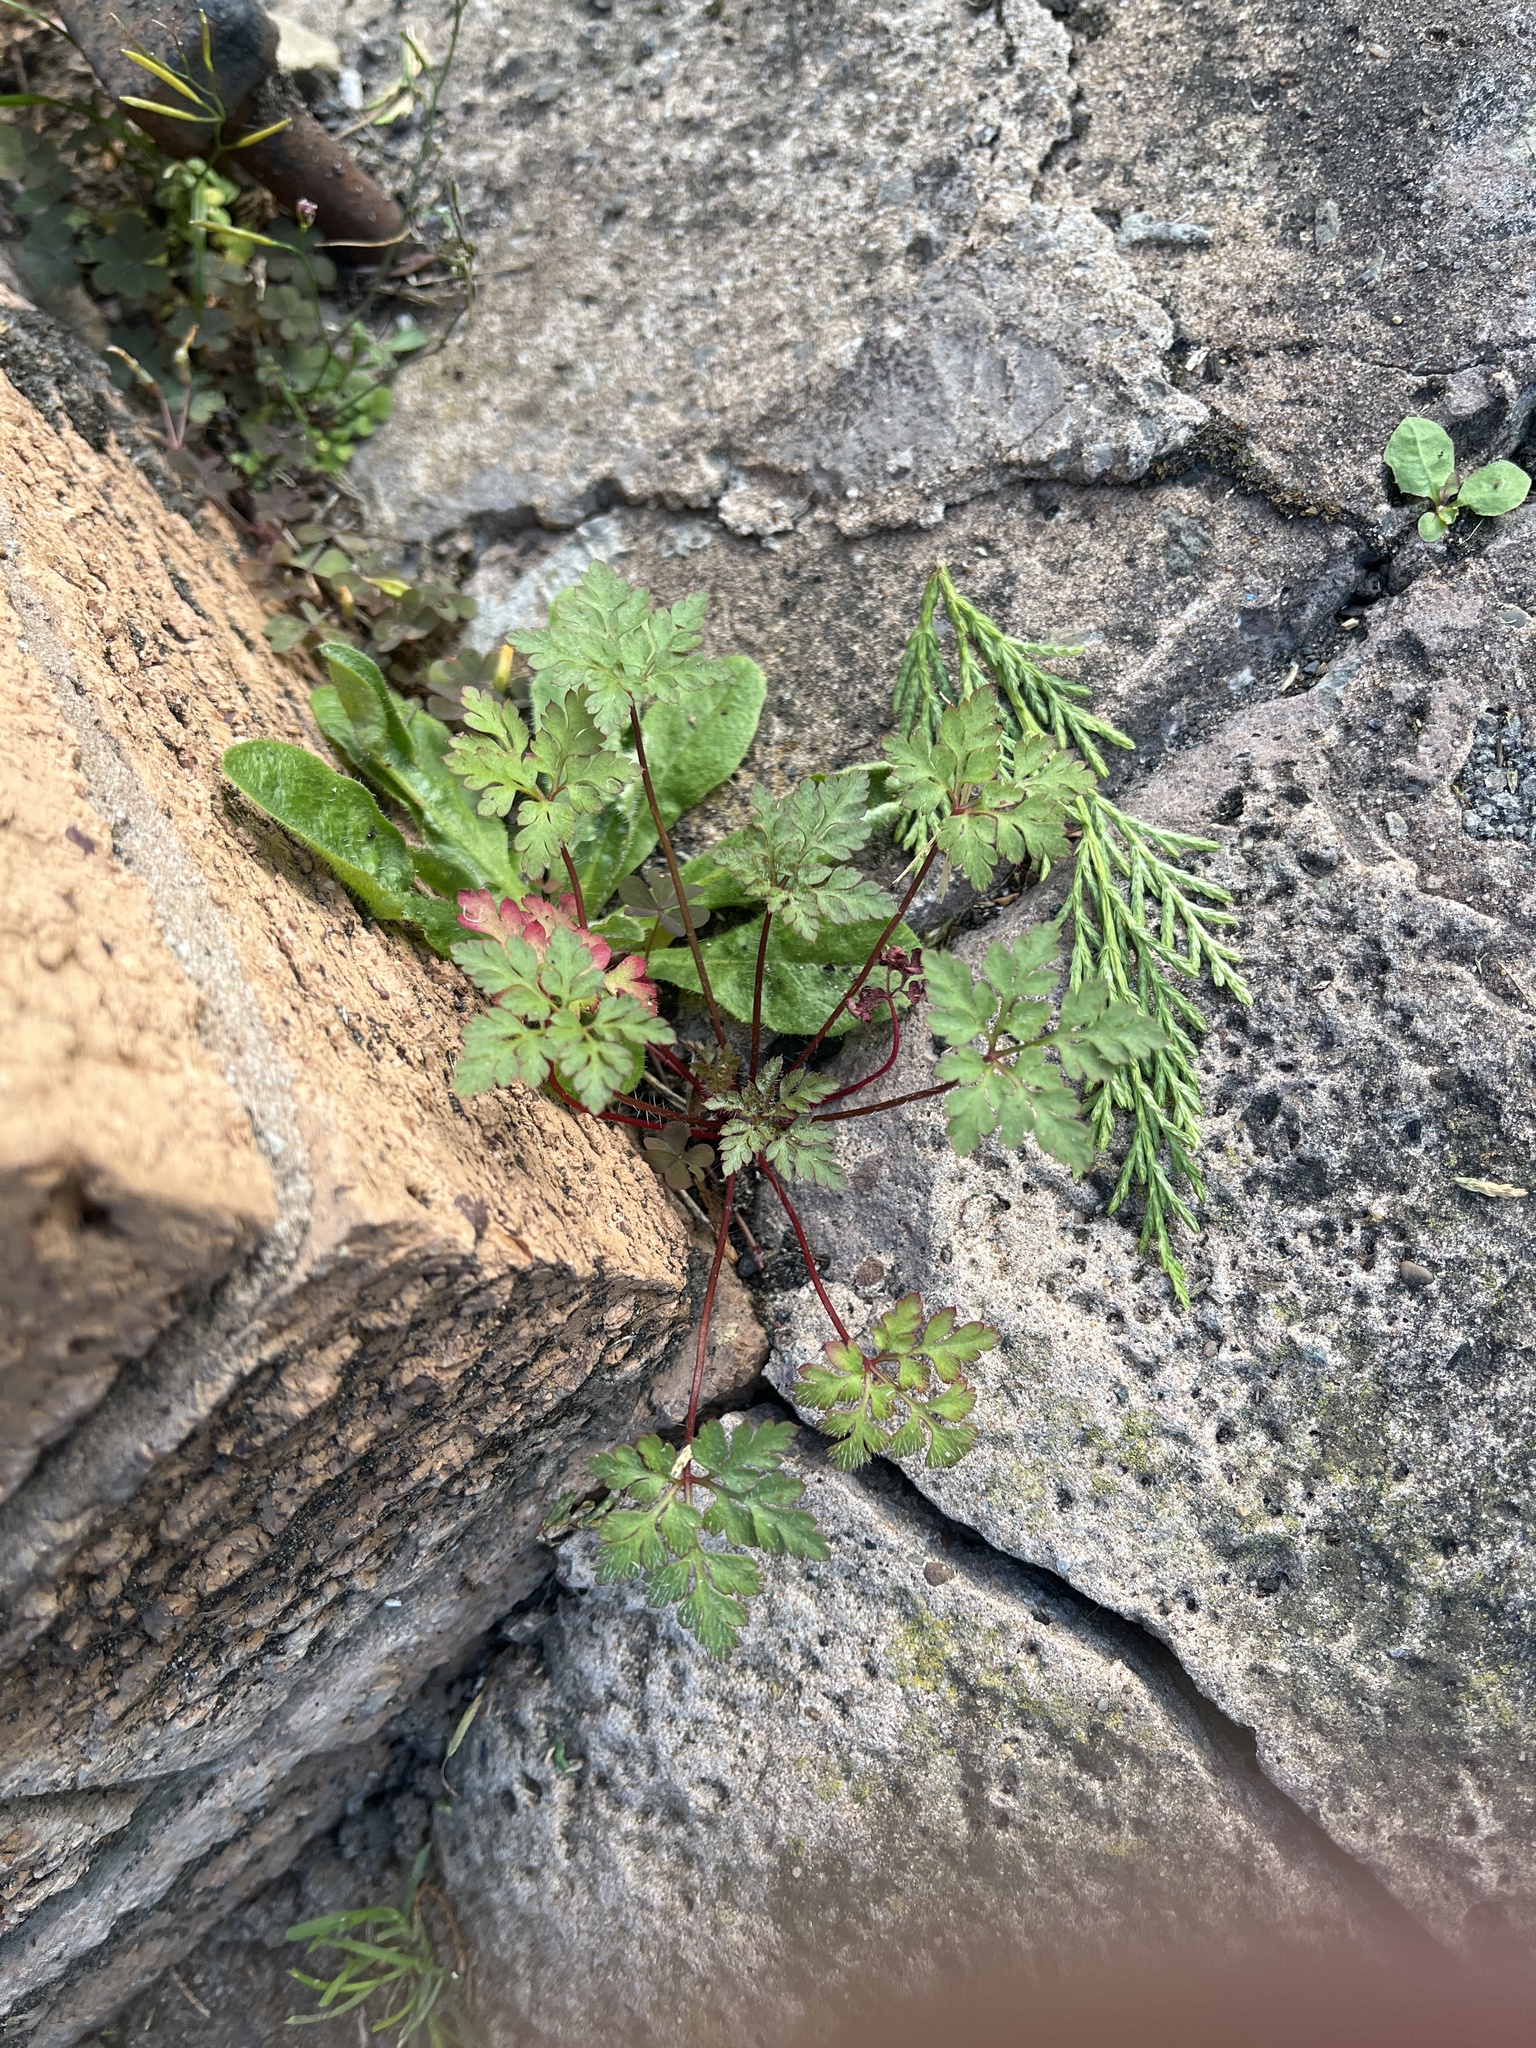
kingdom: Plantae
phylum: Tracheophyta
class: Magnoliopsida
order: Geraniales
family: Geraniaceae
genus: Geranium
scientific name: Geranium robertianum
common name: Herb-robert
